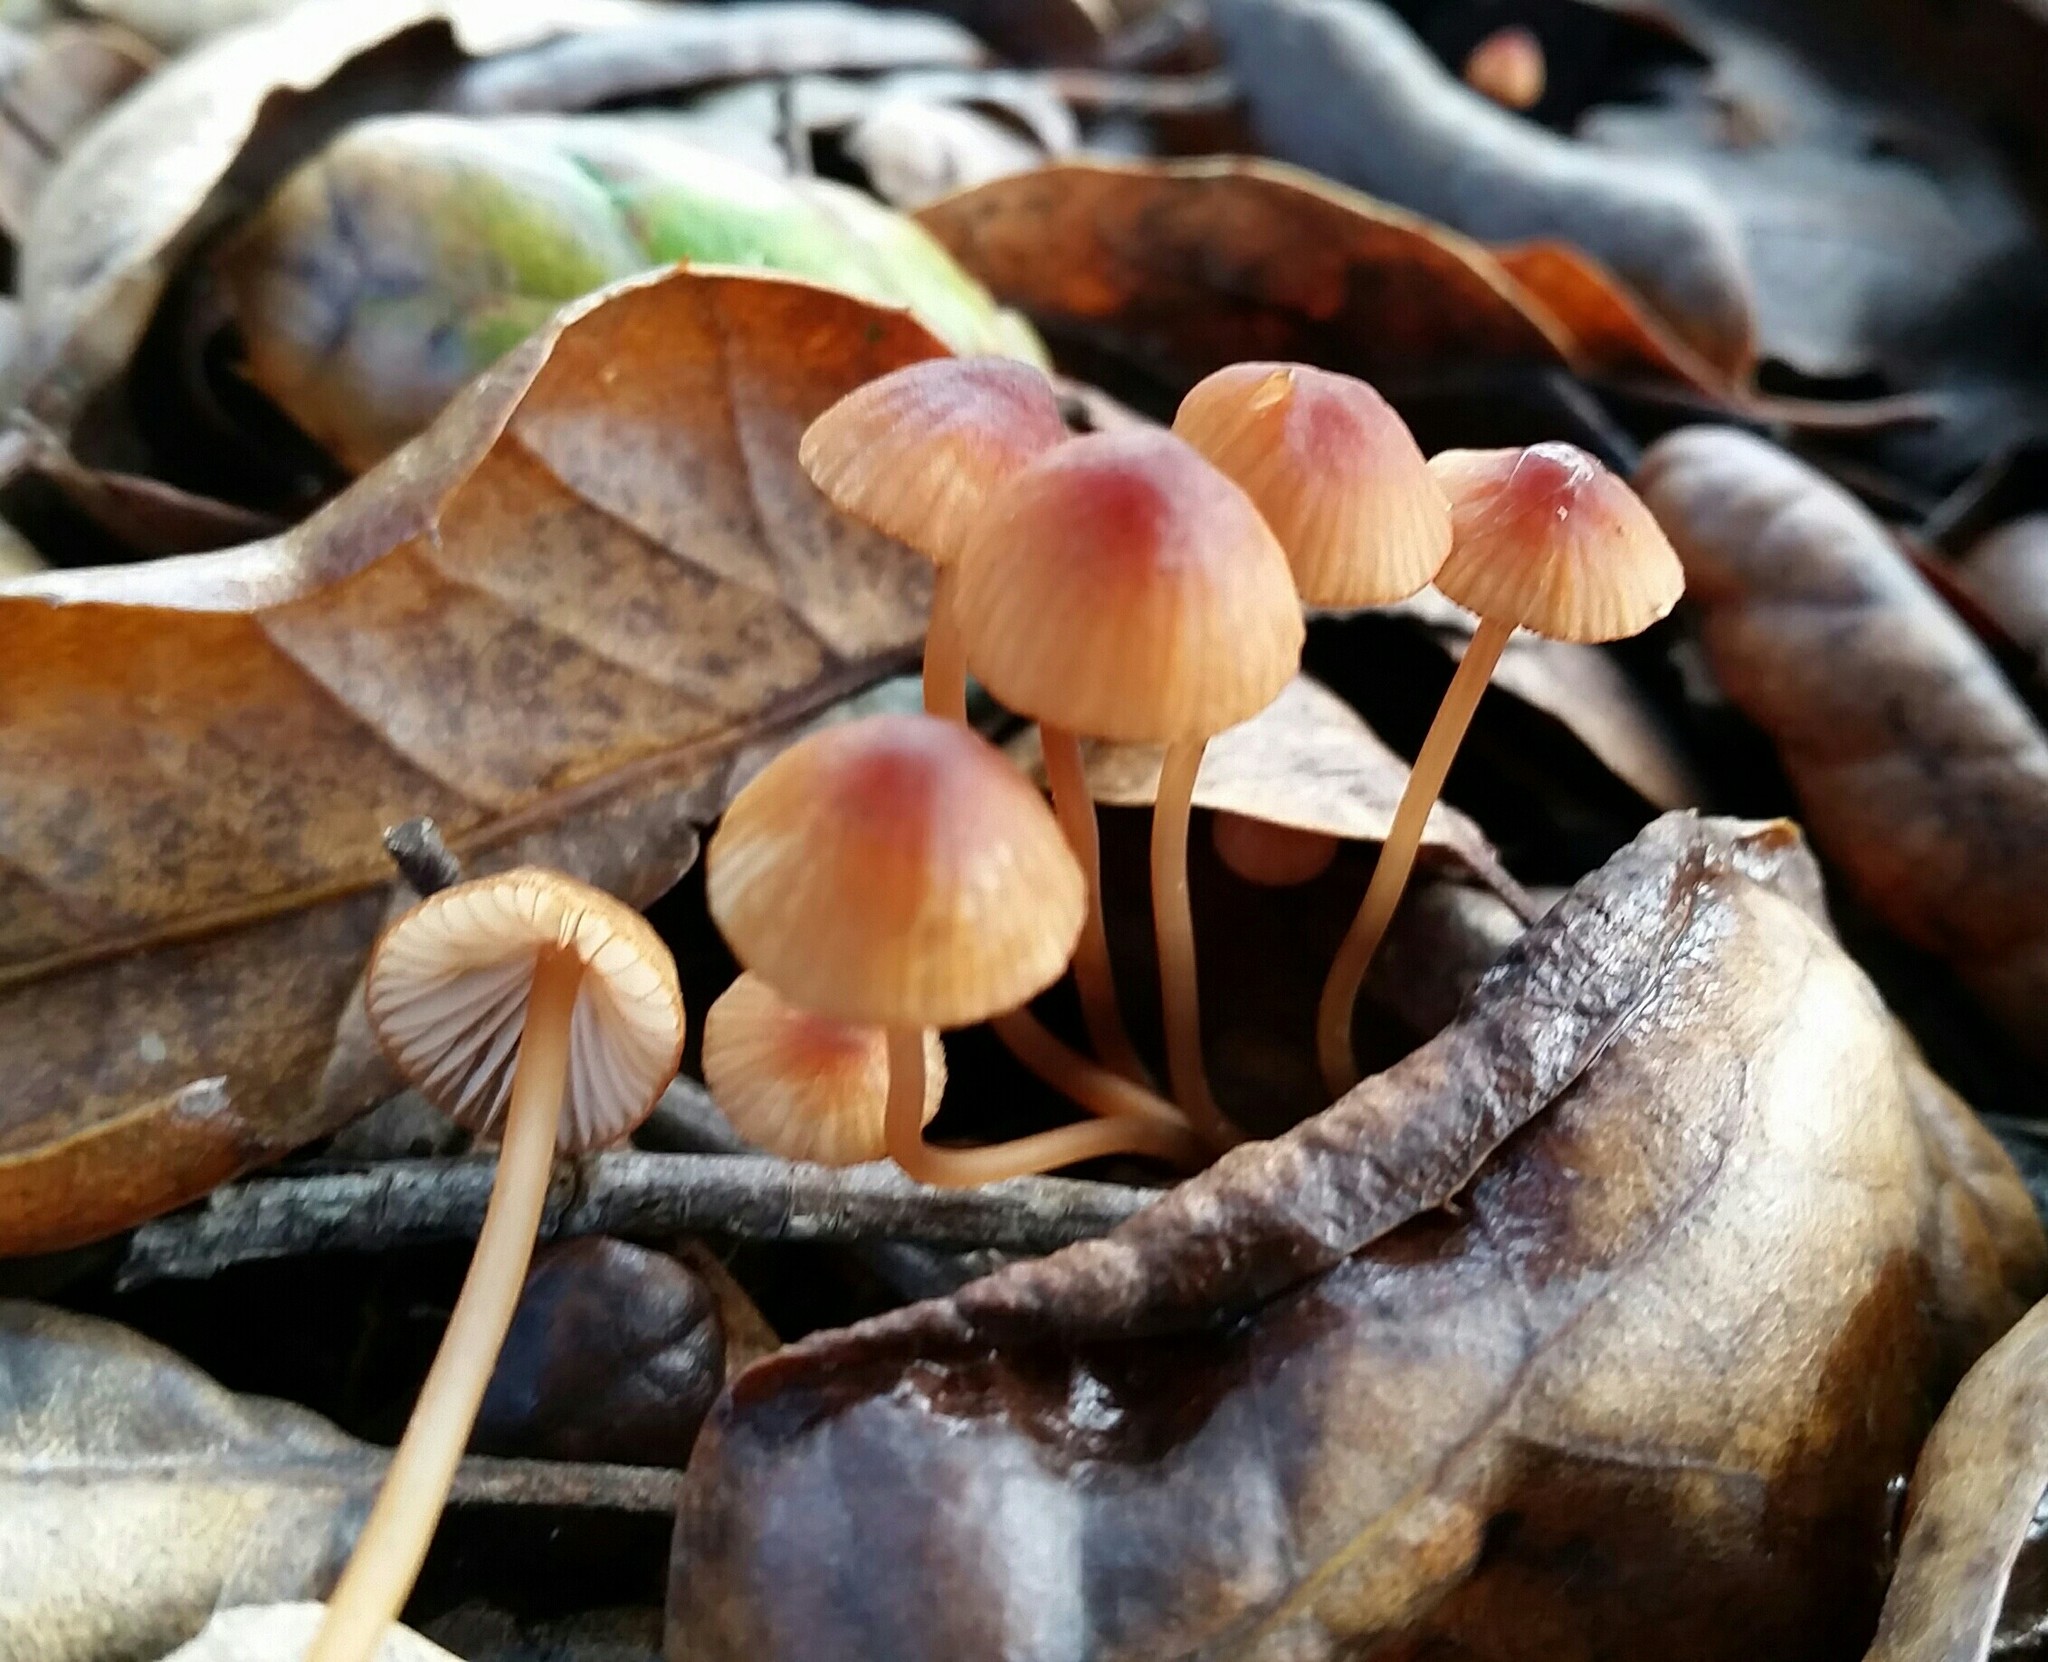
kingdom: Fungi
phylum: Basidiomycota
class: Agaricomycetes
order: Agaricales
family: Mycenaceae
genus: Mycena
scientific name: Mycena
